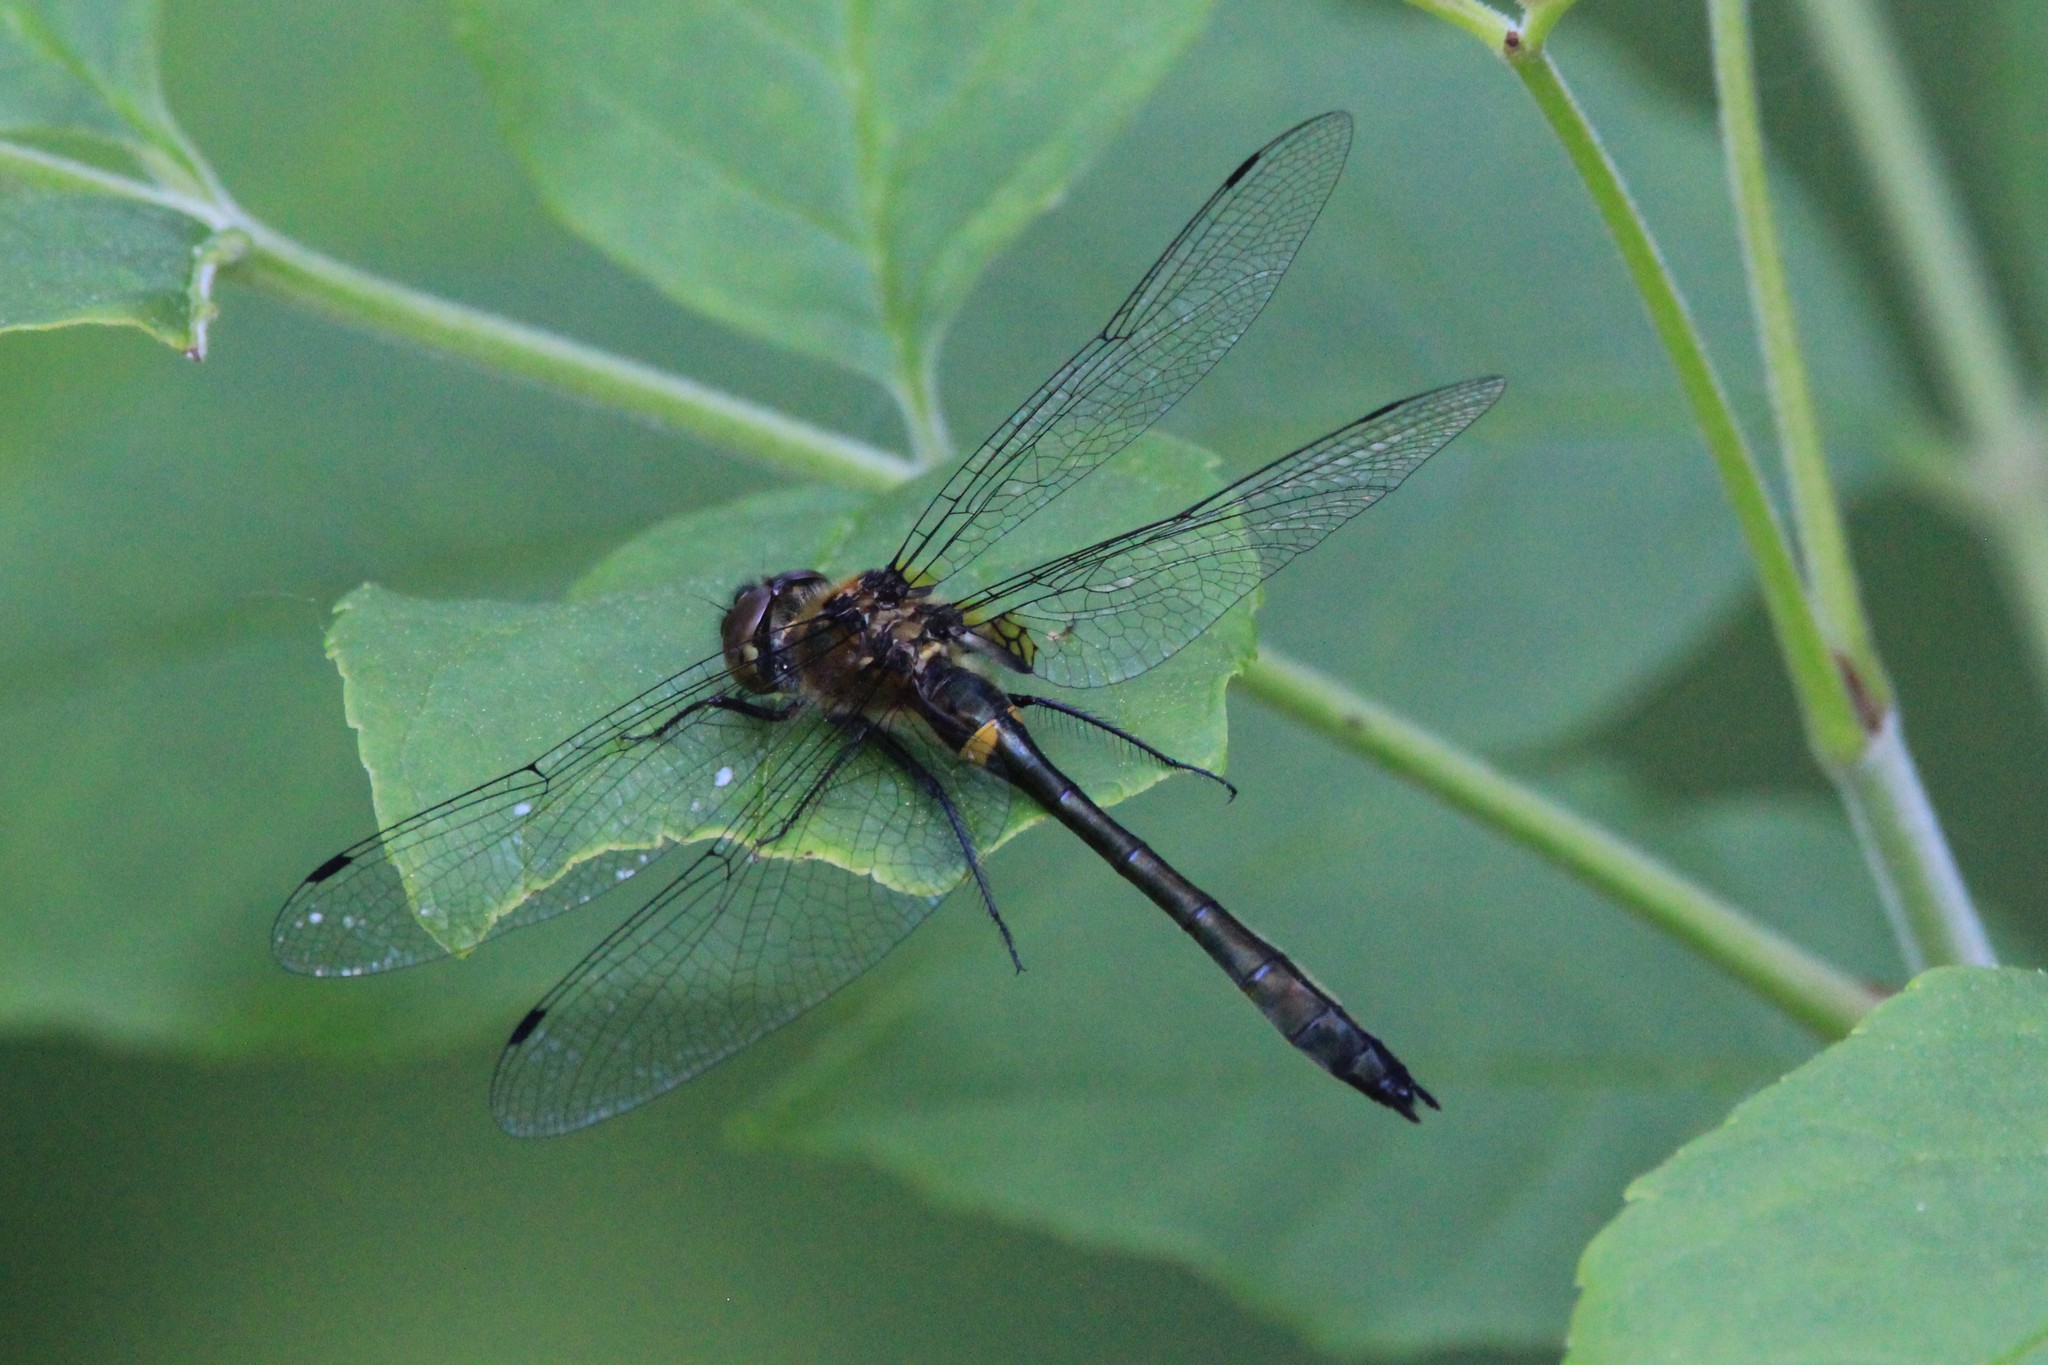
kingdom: Animalia
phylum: Arthropoda
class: Insecta
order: Odonata
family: Corduliidae
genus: Dorocordulia
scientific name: Dorocordulia libera
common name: Racket-tailed emerald
